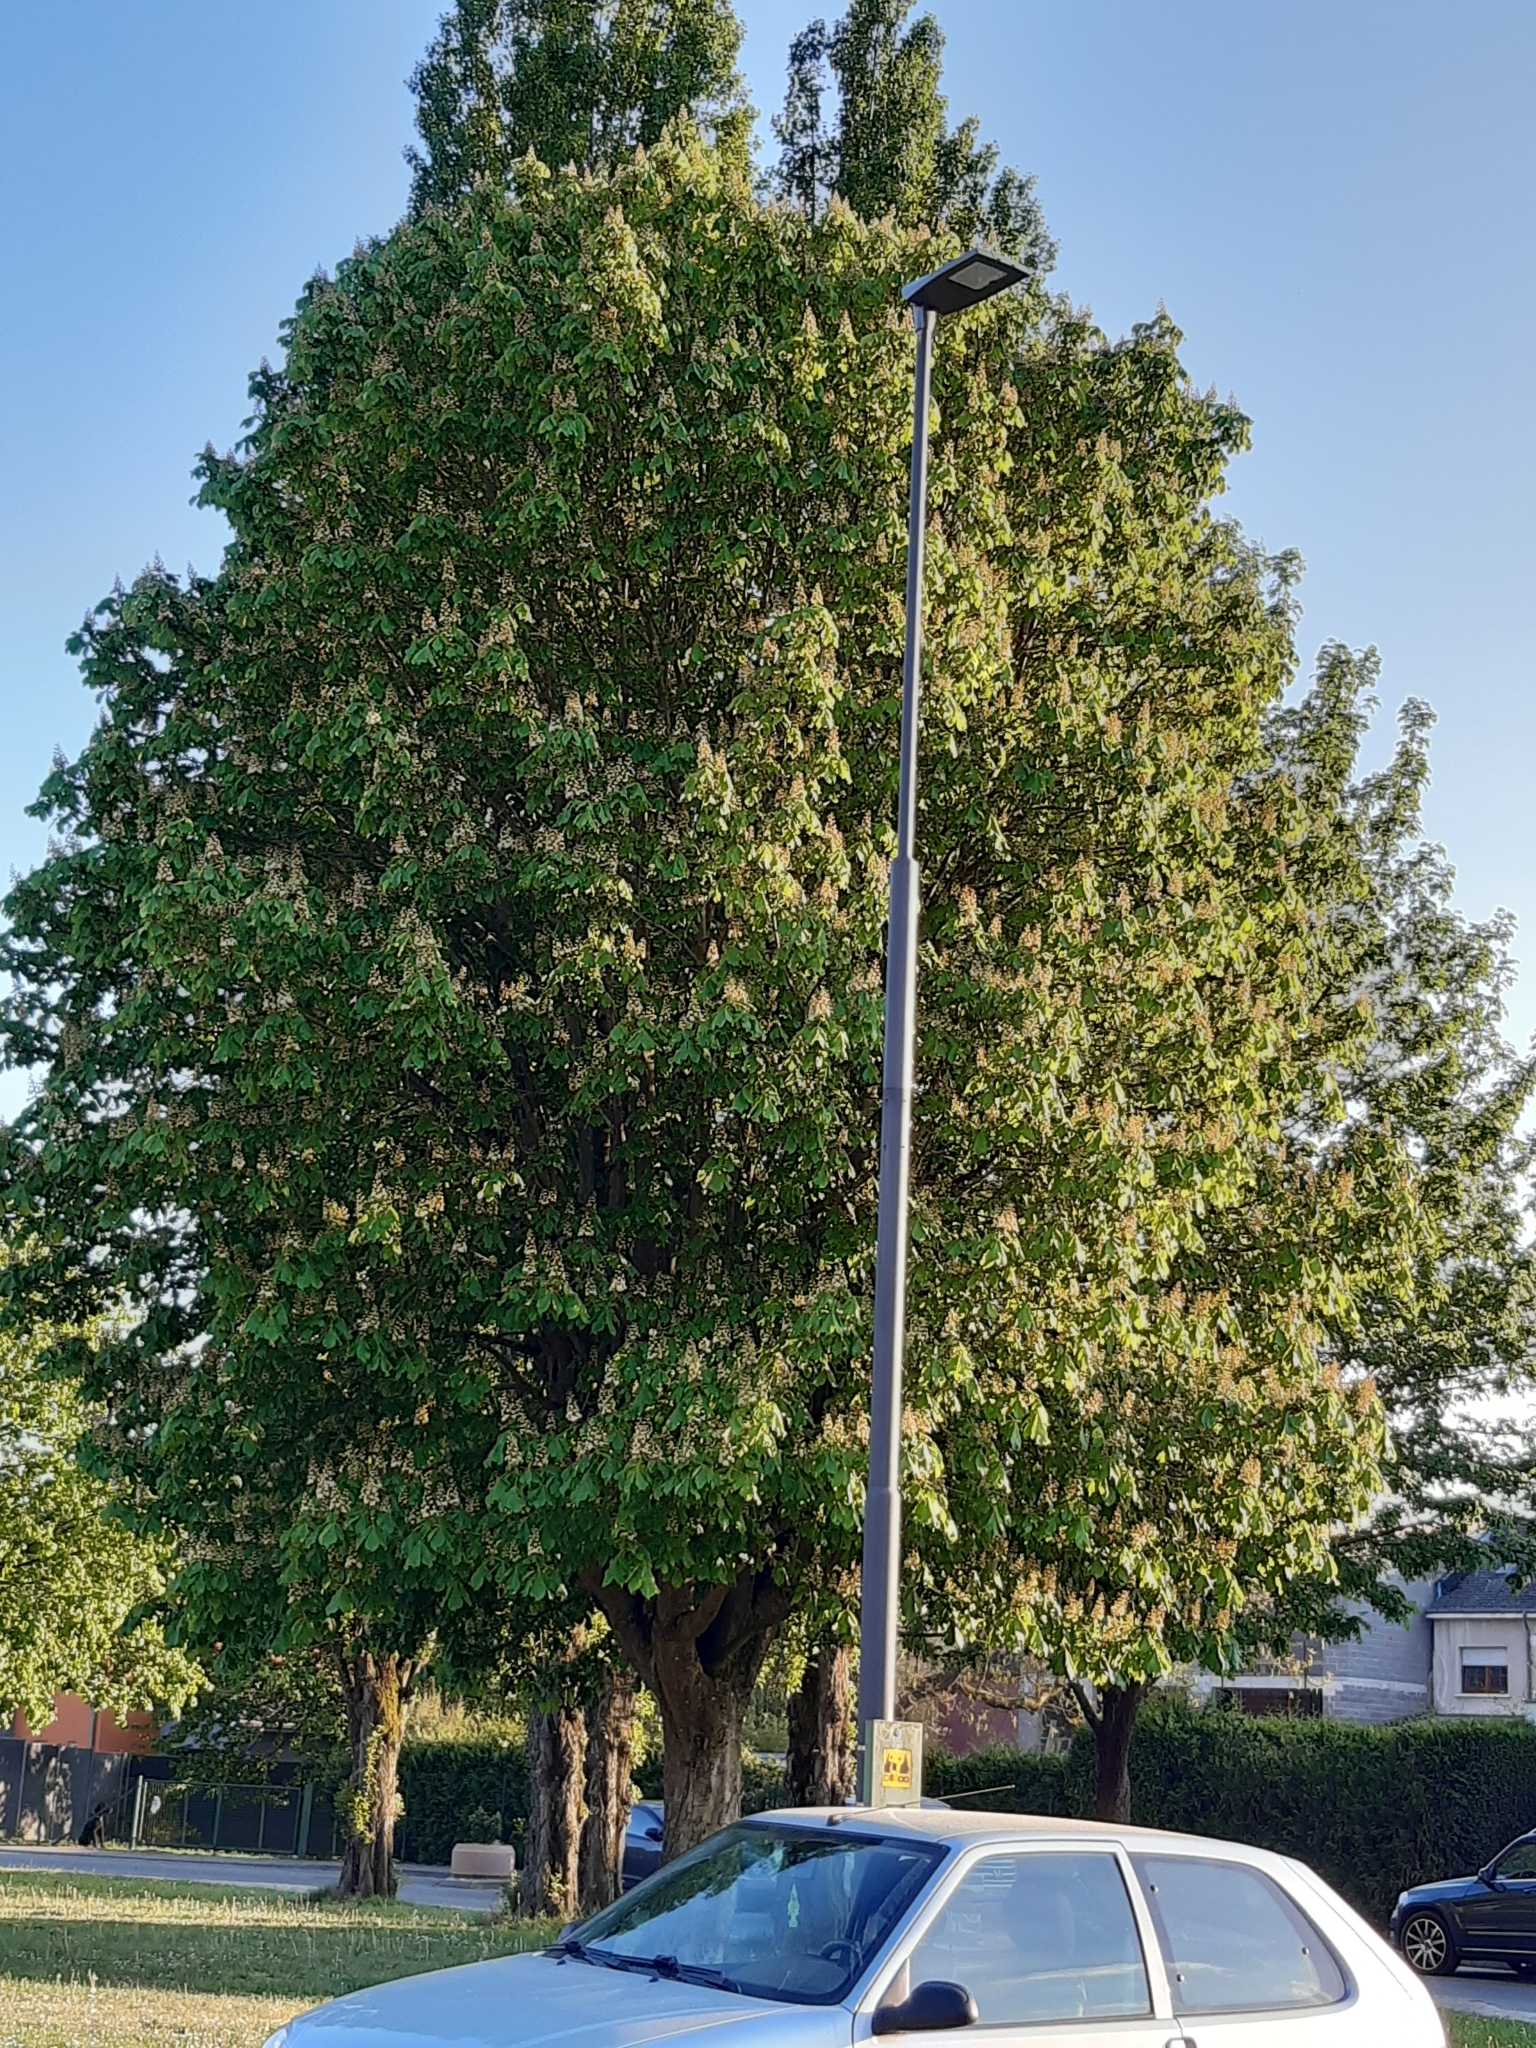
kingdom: Plantae
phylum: Tracheophyta
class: Magnoliopsida
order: Sapindales
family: Sapindaceae
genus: Aesculus
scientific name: Aesculus hippocastanum
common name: Horse-chestnut
